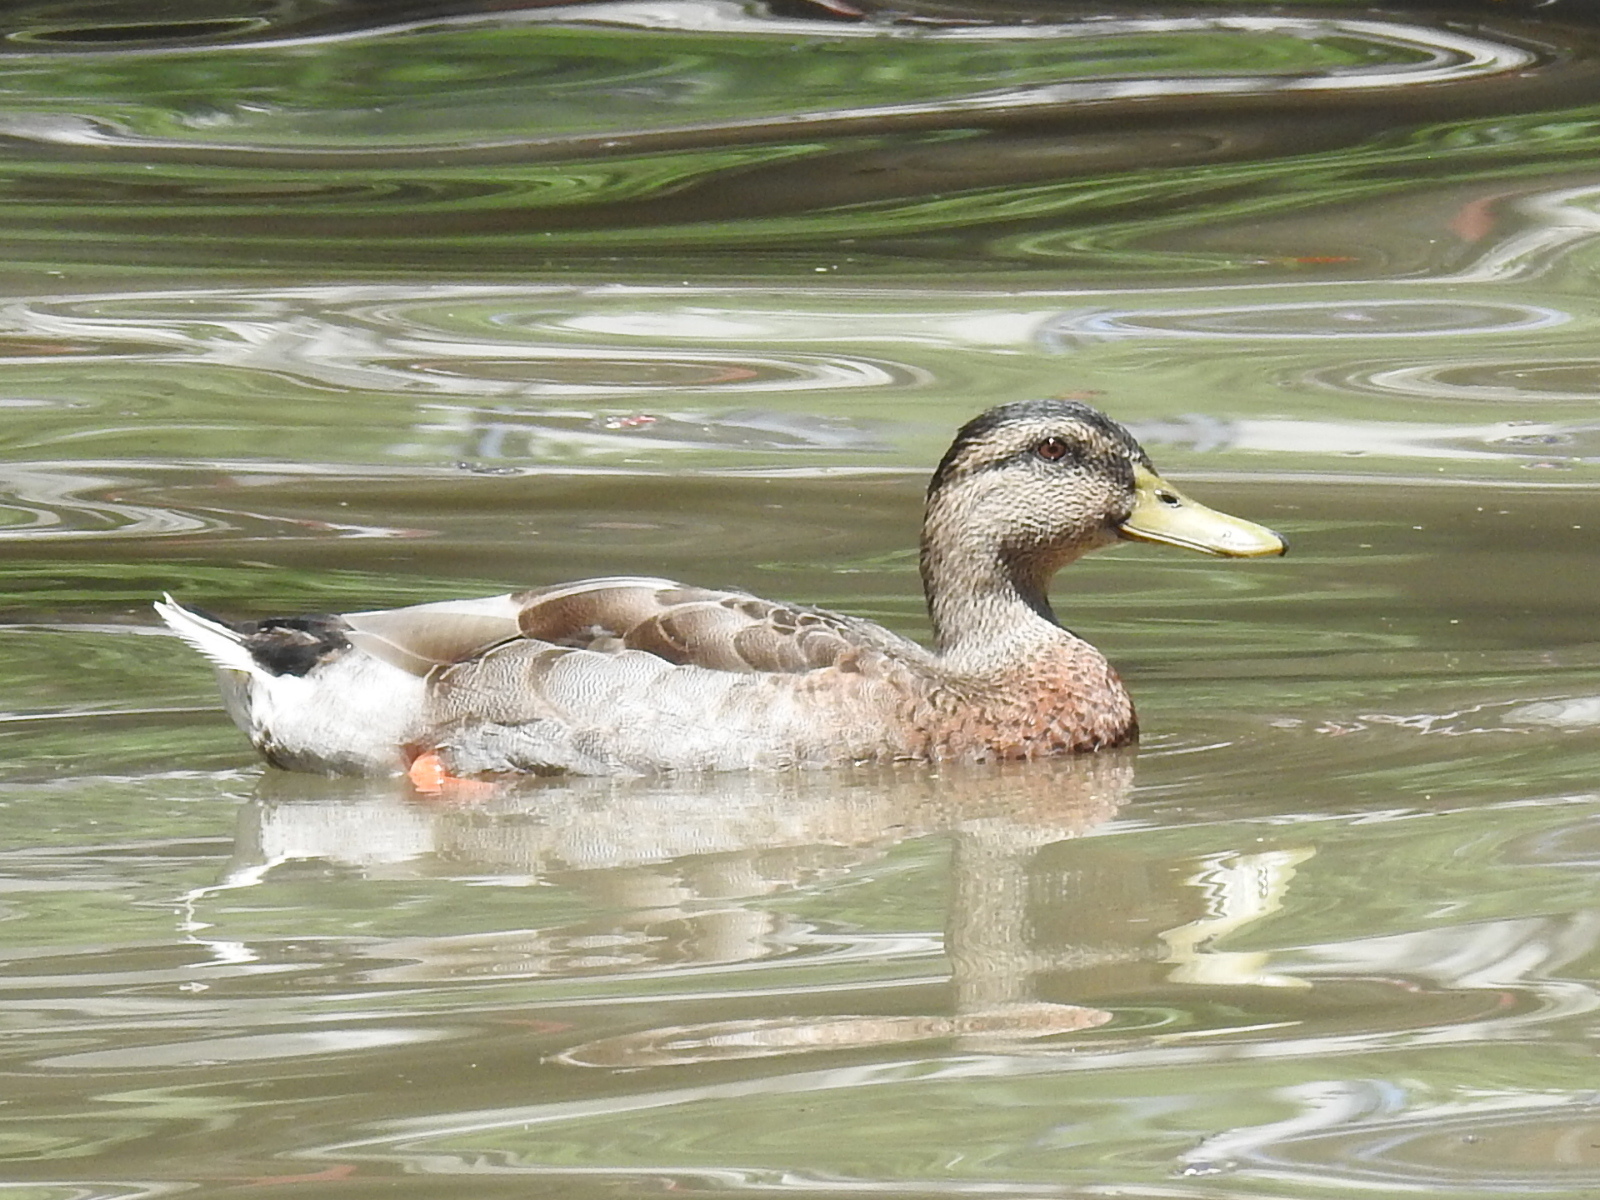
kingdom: Animalia
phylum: Chordata
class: Aves
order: Anseriformes
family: Anatidae
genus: Anas
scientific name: Anas platyrhynchos
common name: Mallard
